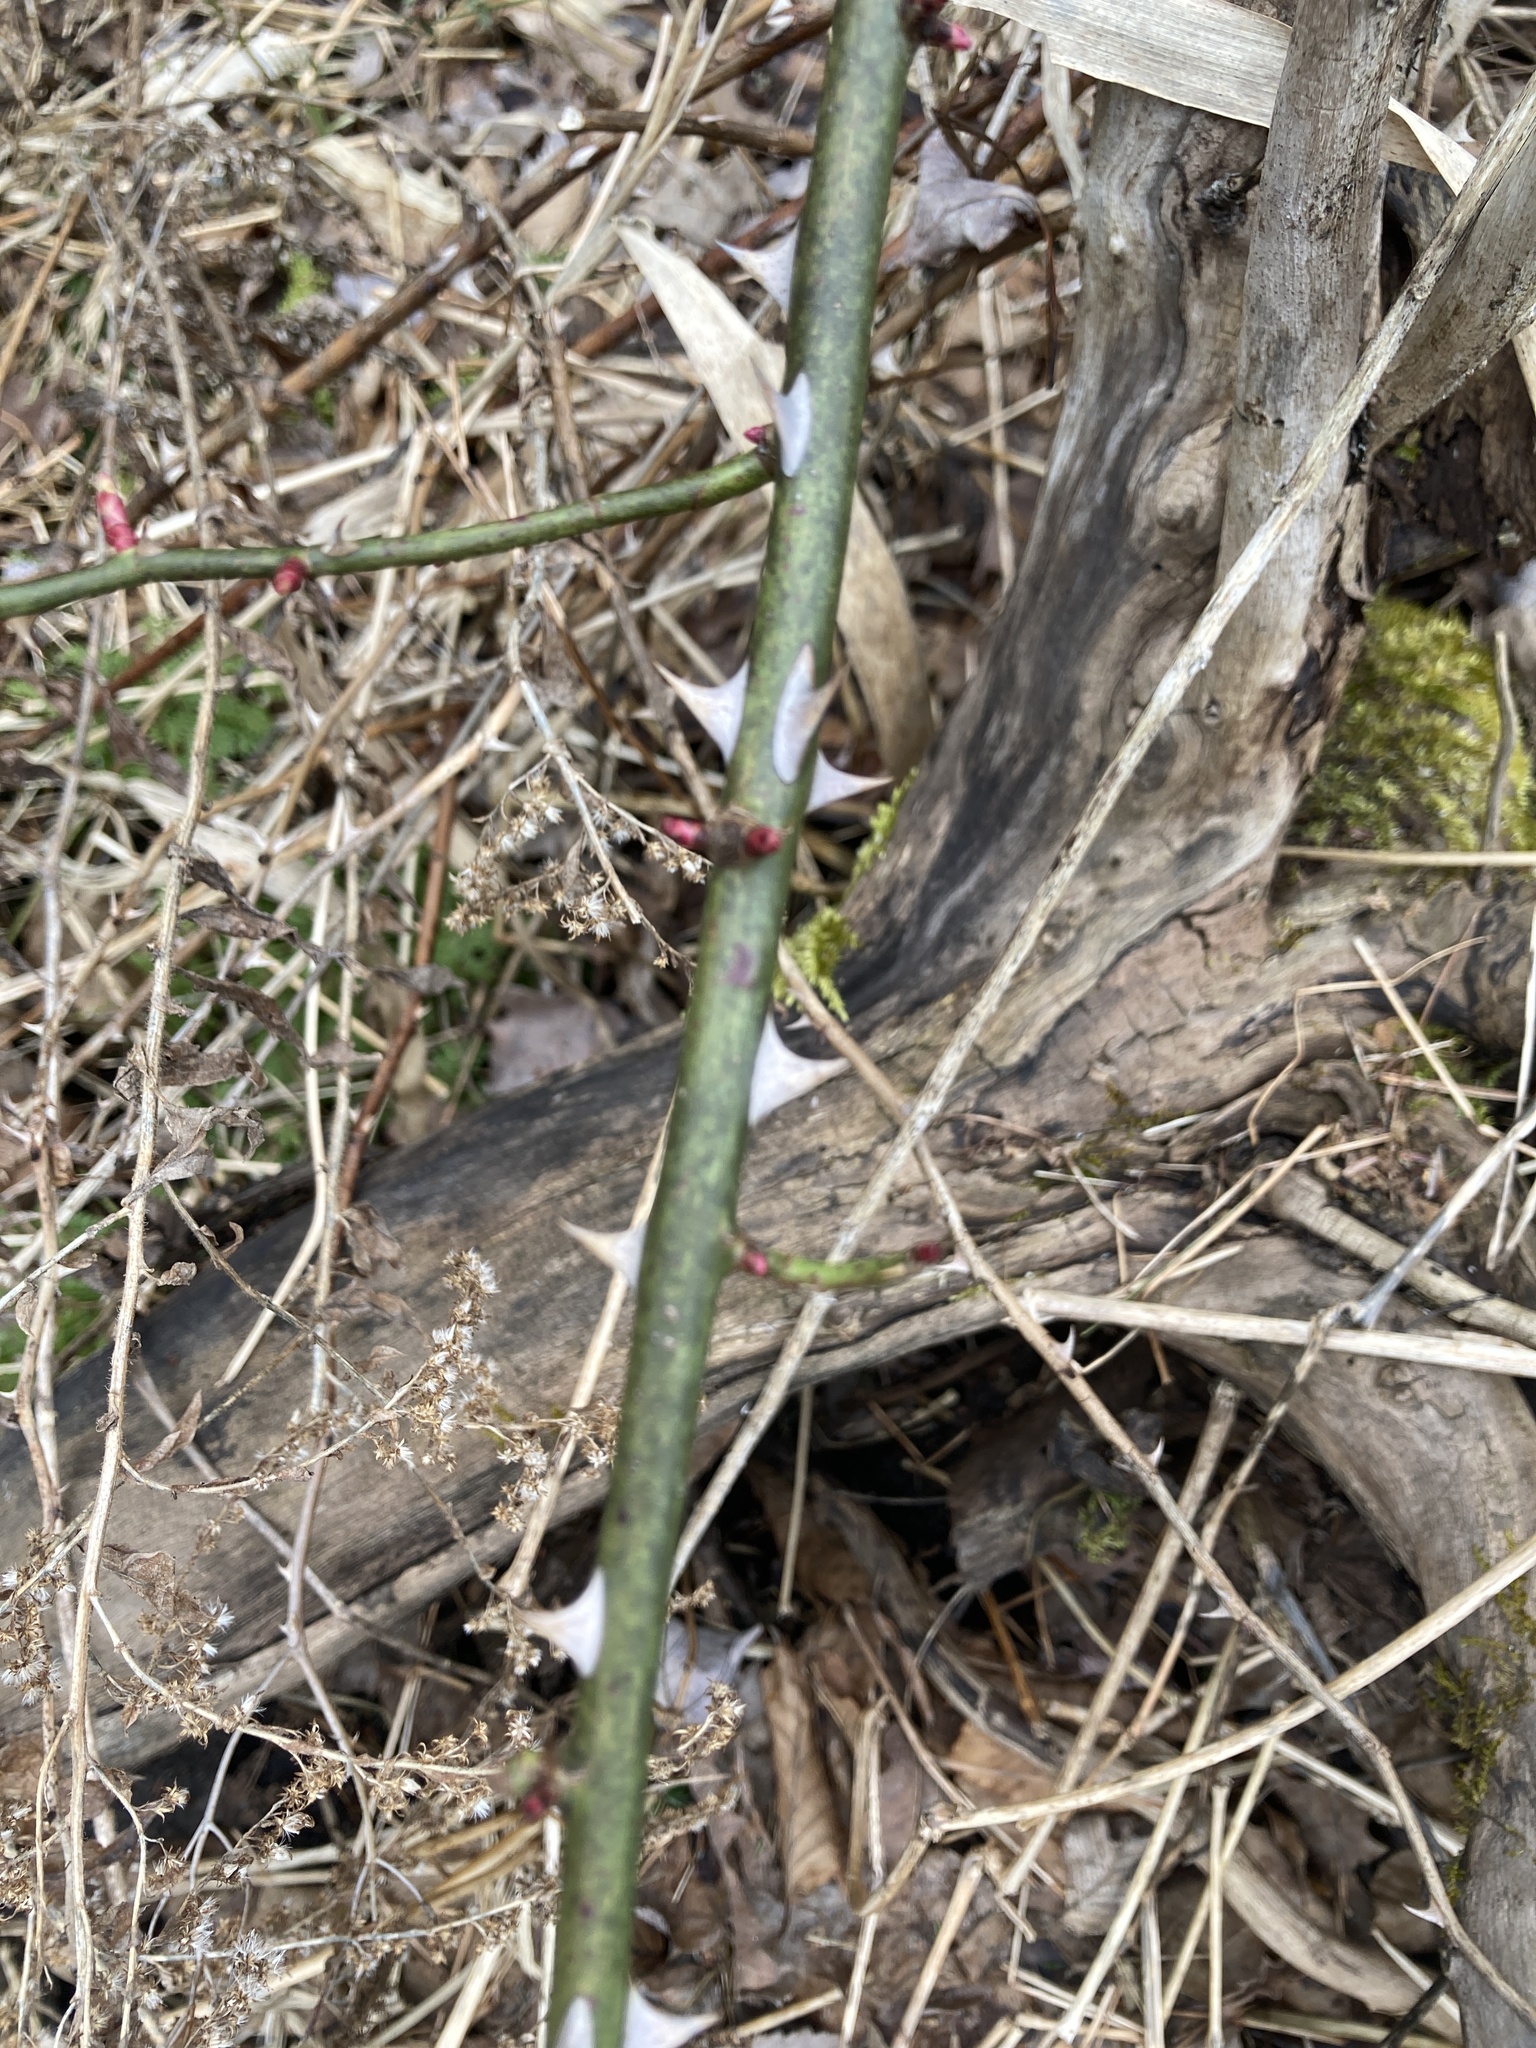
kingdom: Plantae
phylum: Tracheophyta
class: Magnoliopsida
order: Rosales
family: Rosaceae
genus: Rosa
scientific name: Rosa multiflora
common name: Multiflora rose
